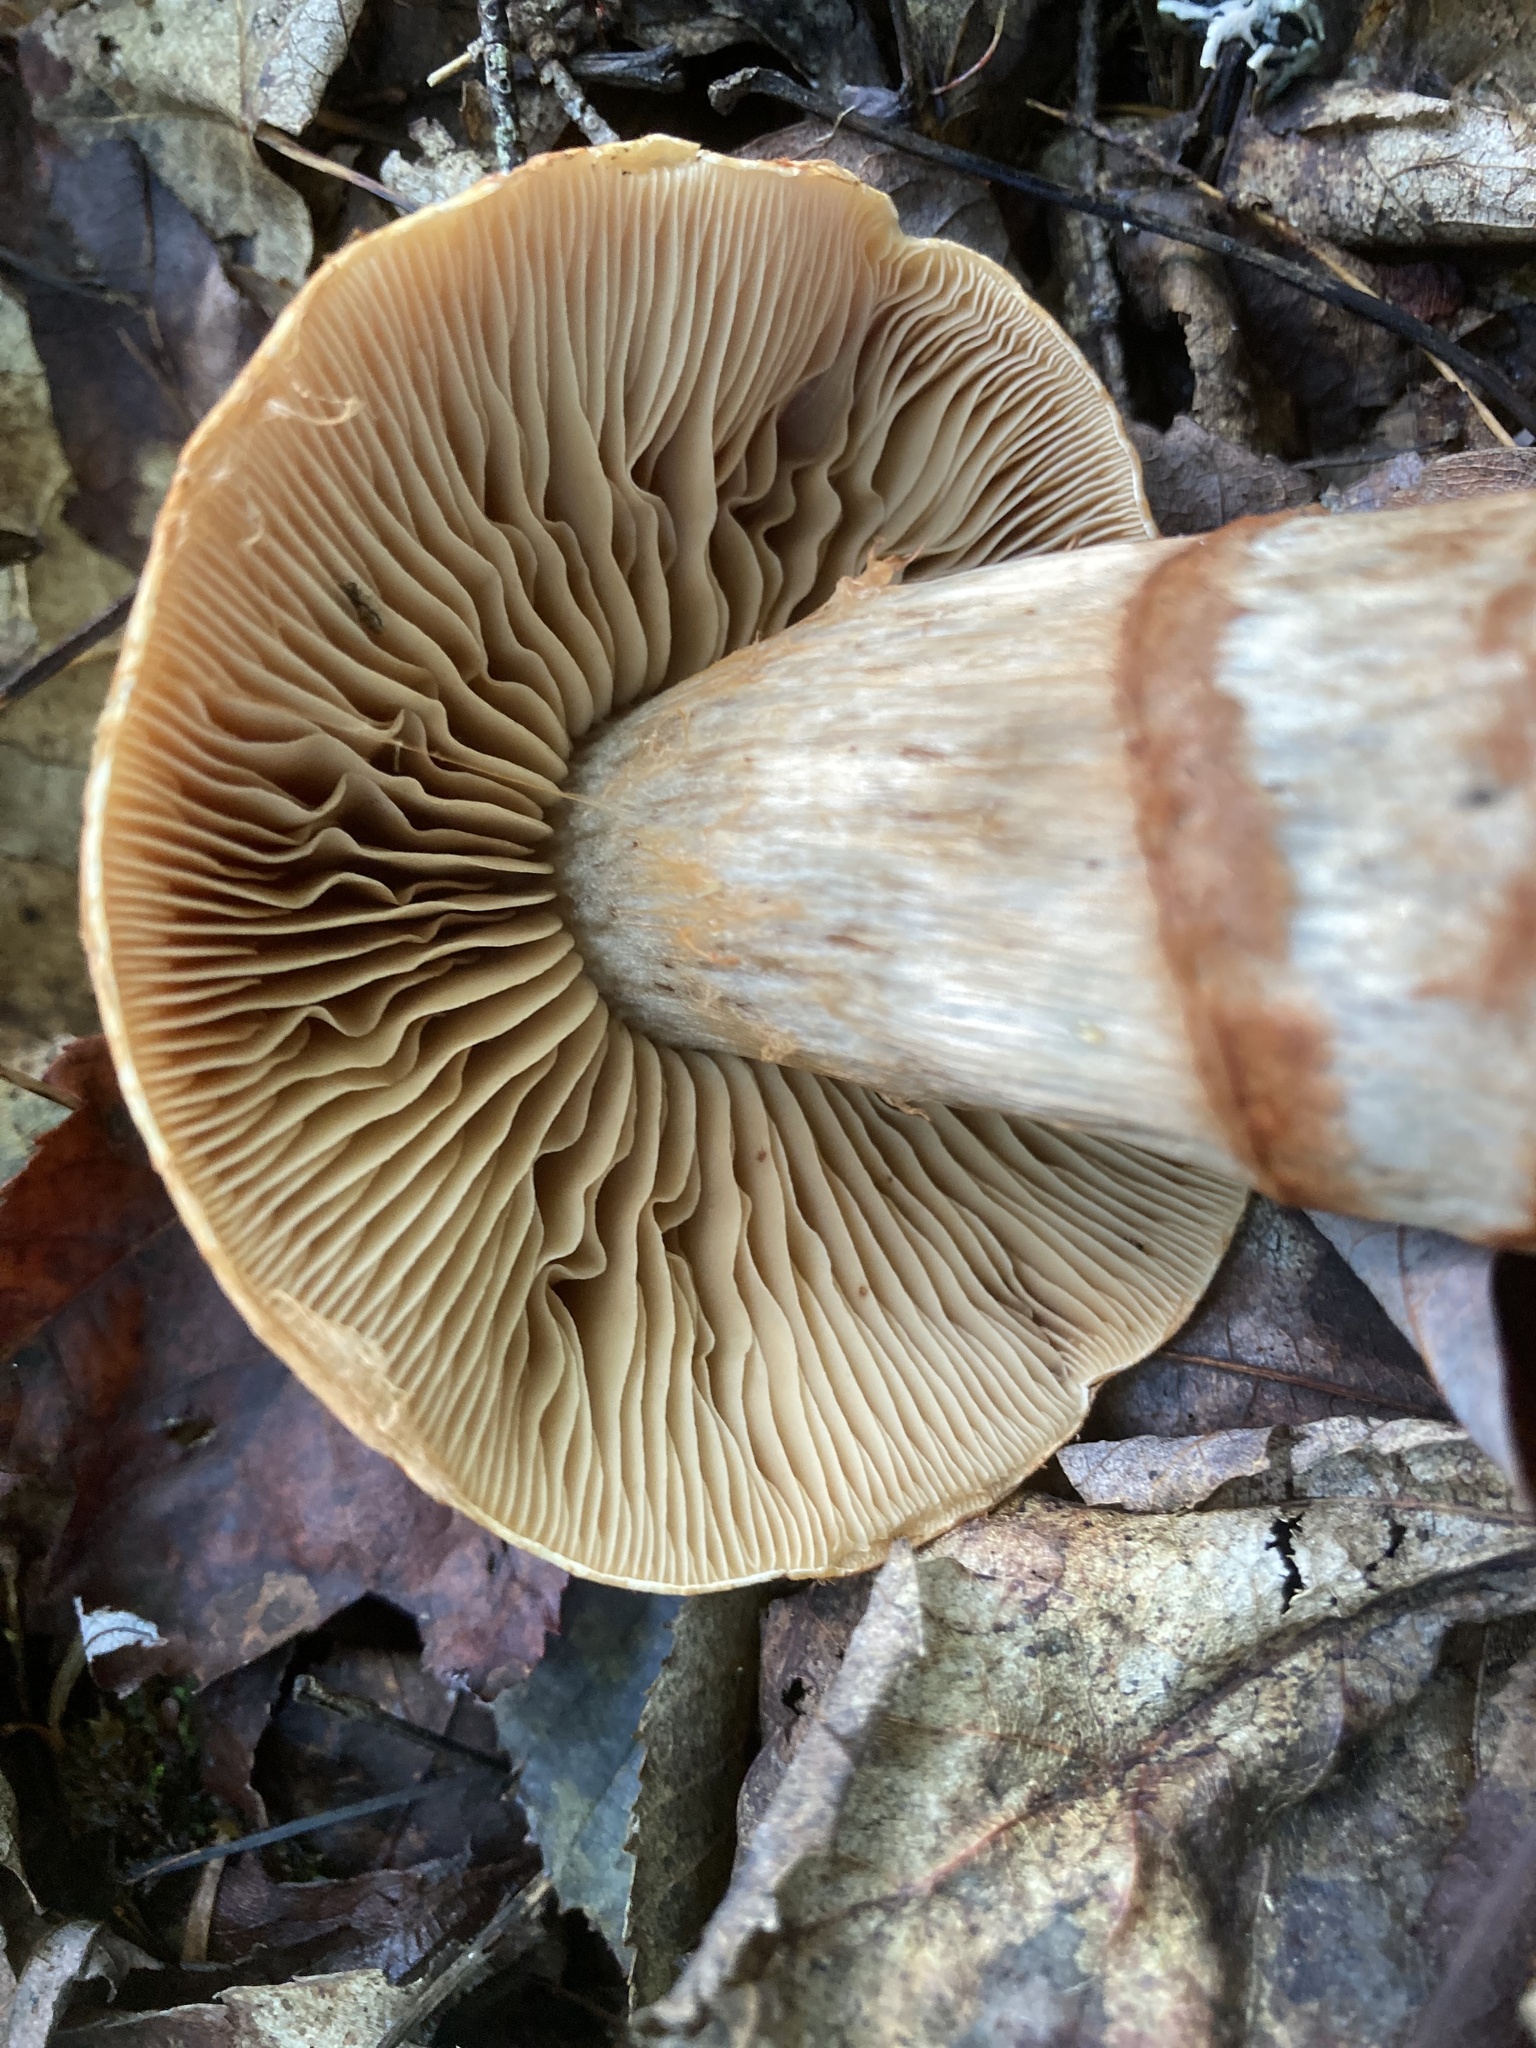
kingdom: Fungi
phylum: Basidiomycota
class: Agaricomycetes
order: Agaricales
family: Cortinariaceae
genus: Cortinarius
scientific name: Cortinarius armillatus
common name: Red banded webcap
